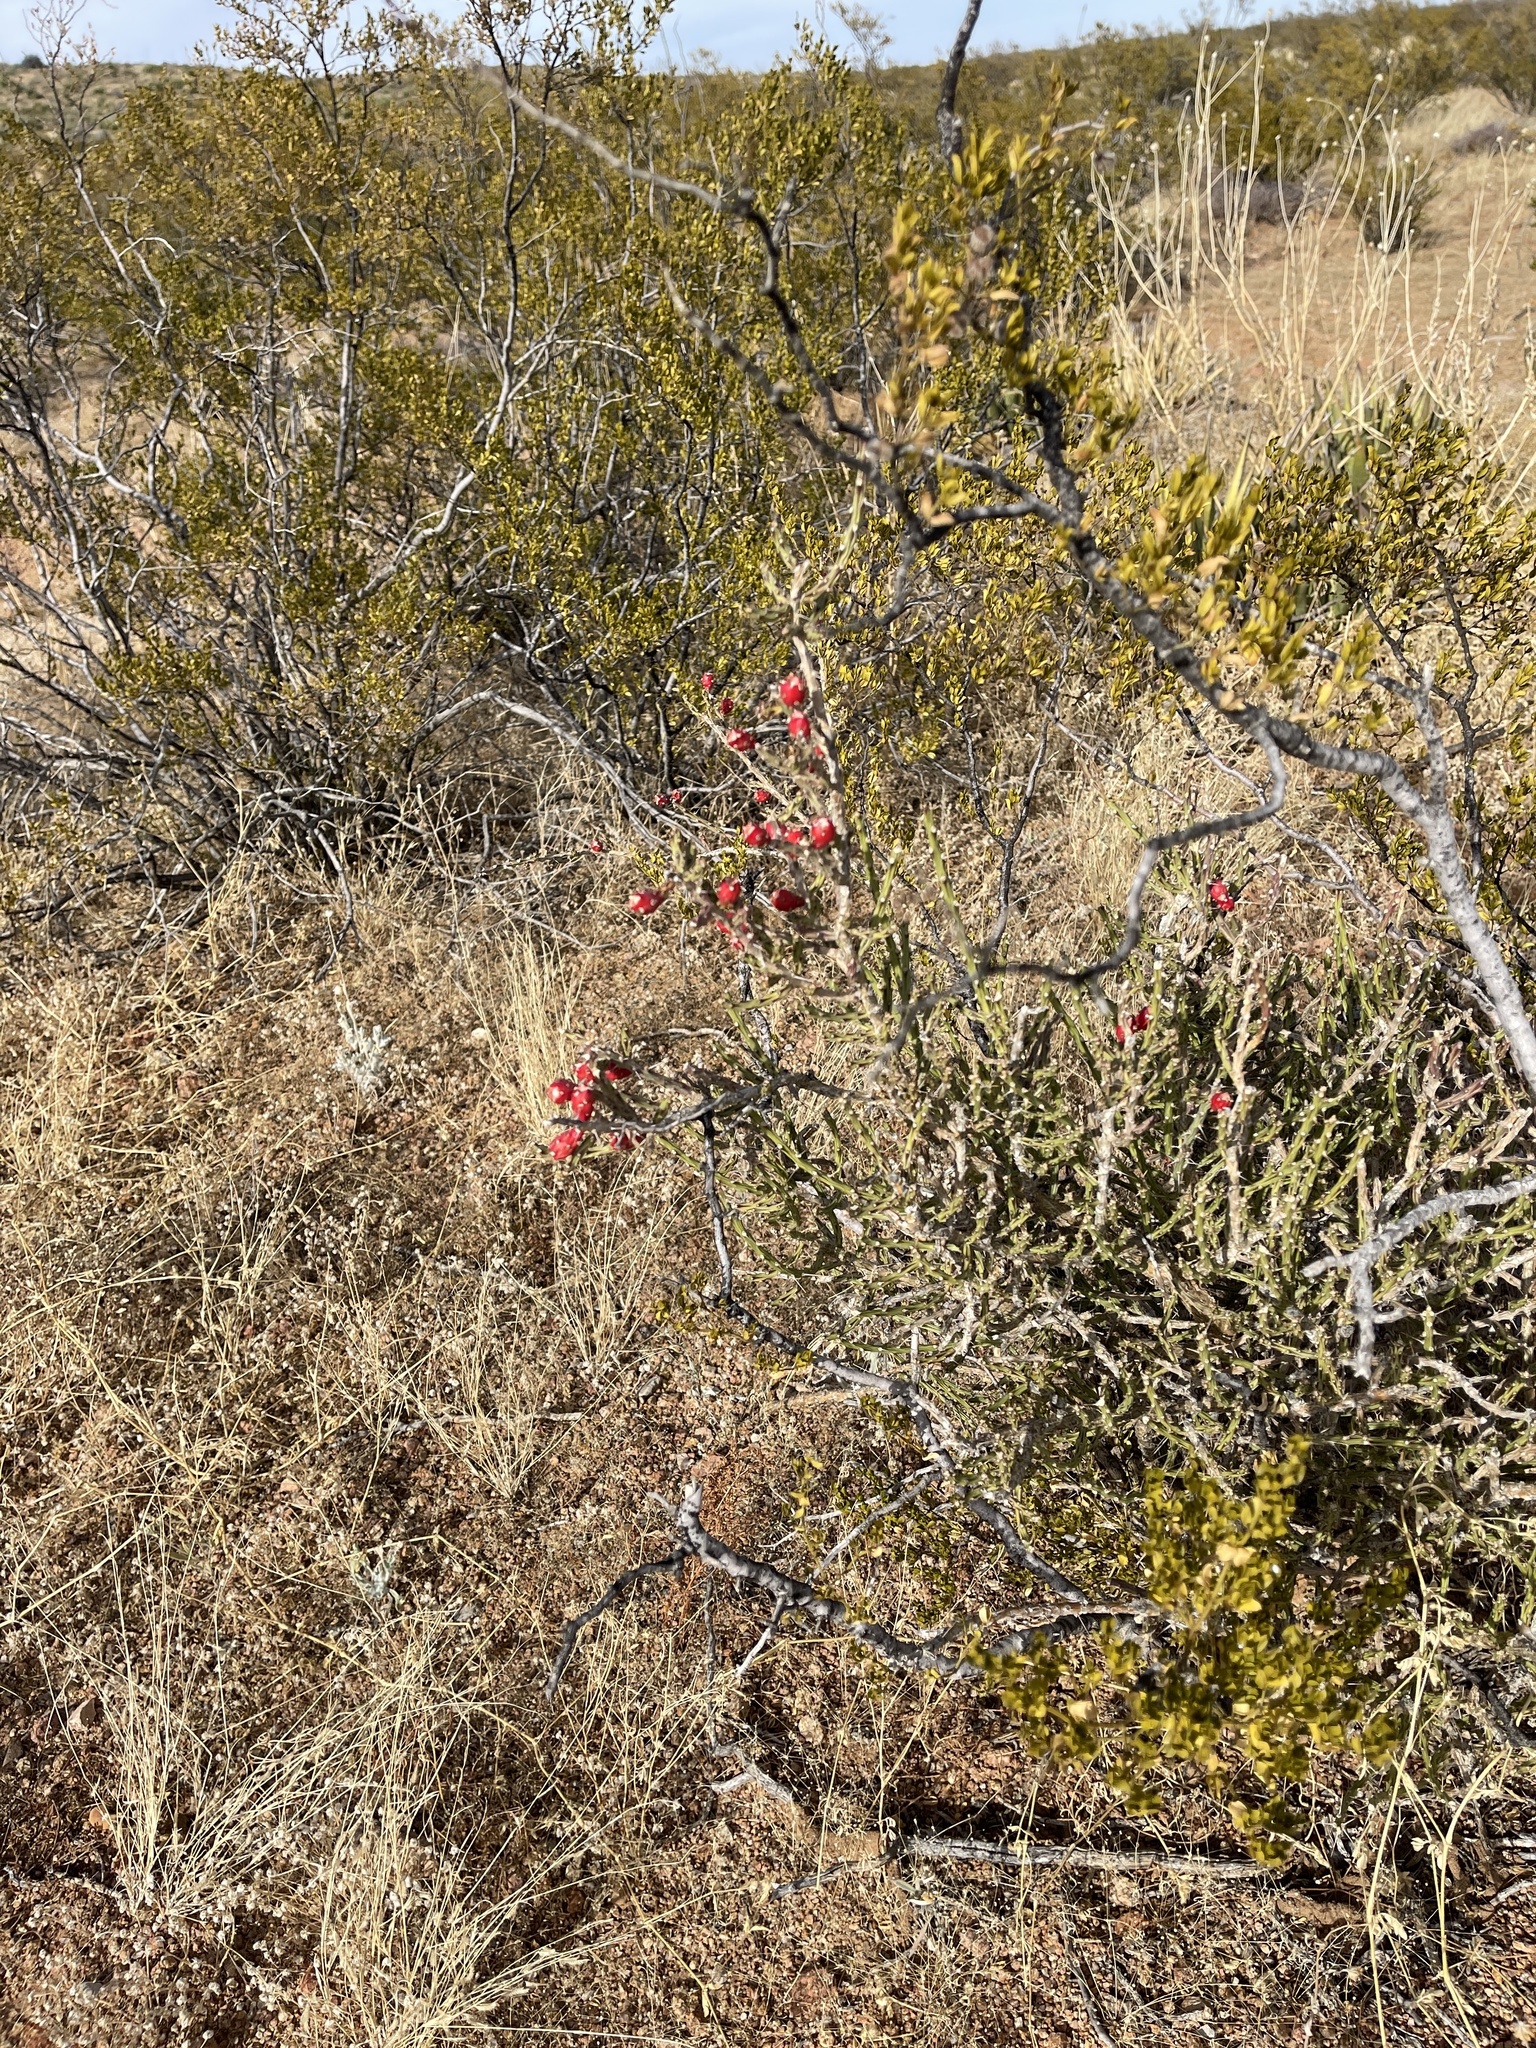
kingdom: Plantae
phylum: Tracheophyta
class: Magnoliopsida
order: Caryophyllales
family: Cactaceae
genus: Cylindropuntia
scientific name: Cylindropuntia leptocaulis
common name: Christmas cactus
